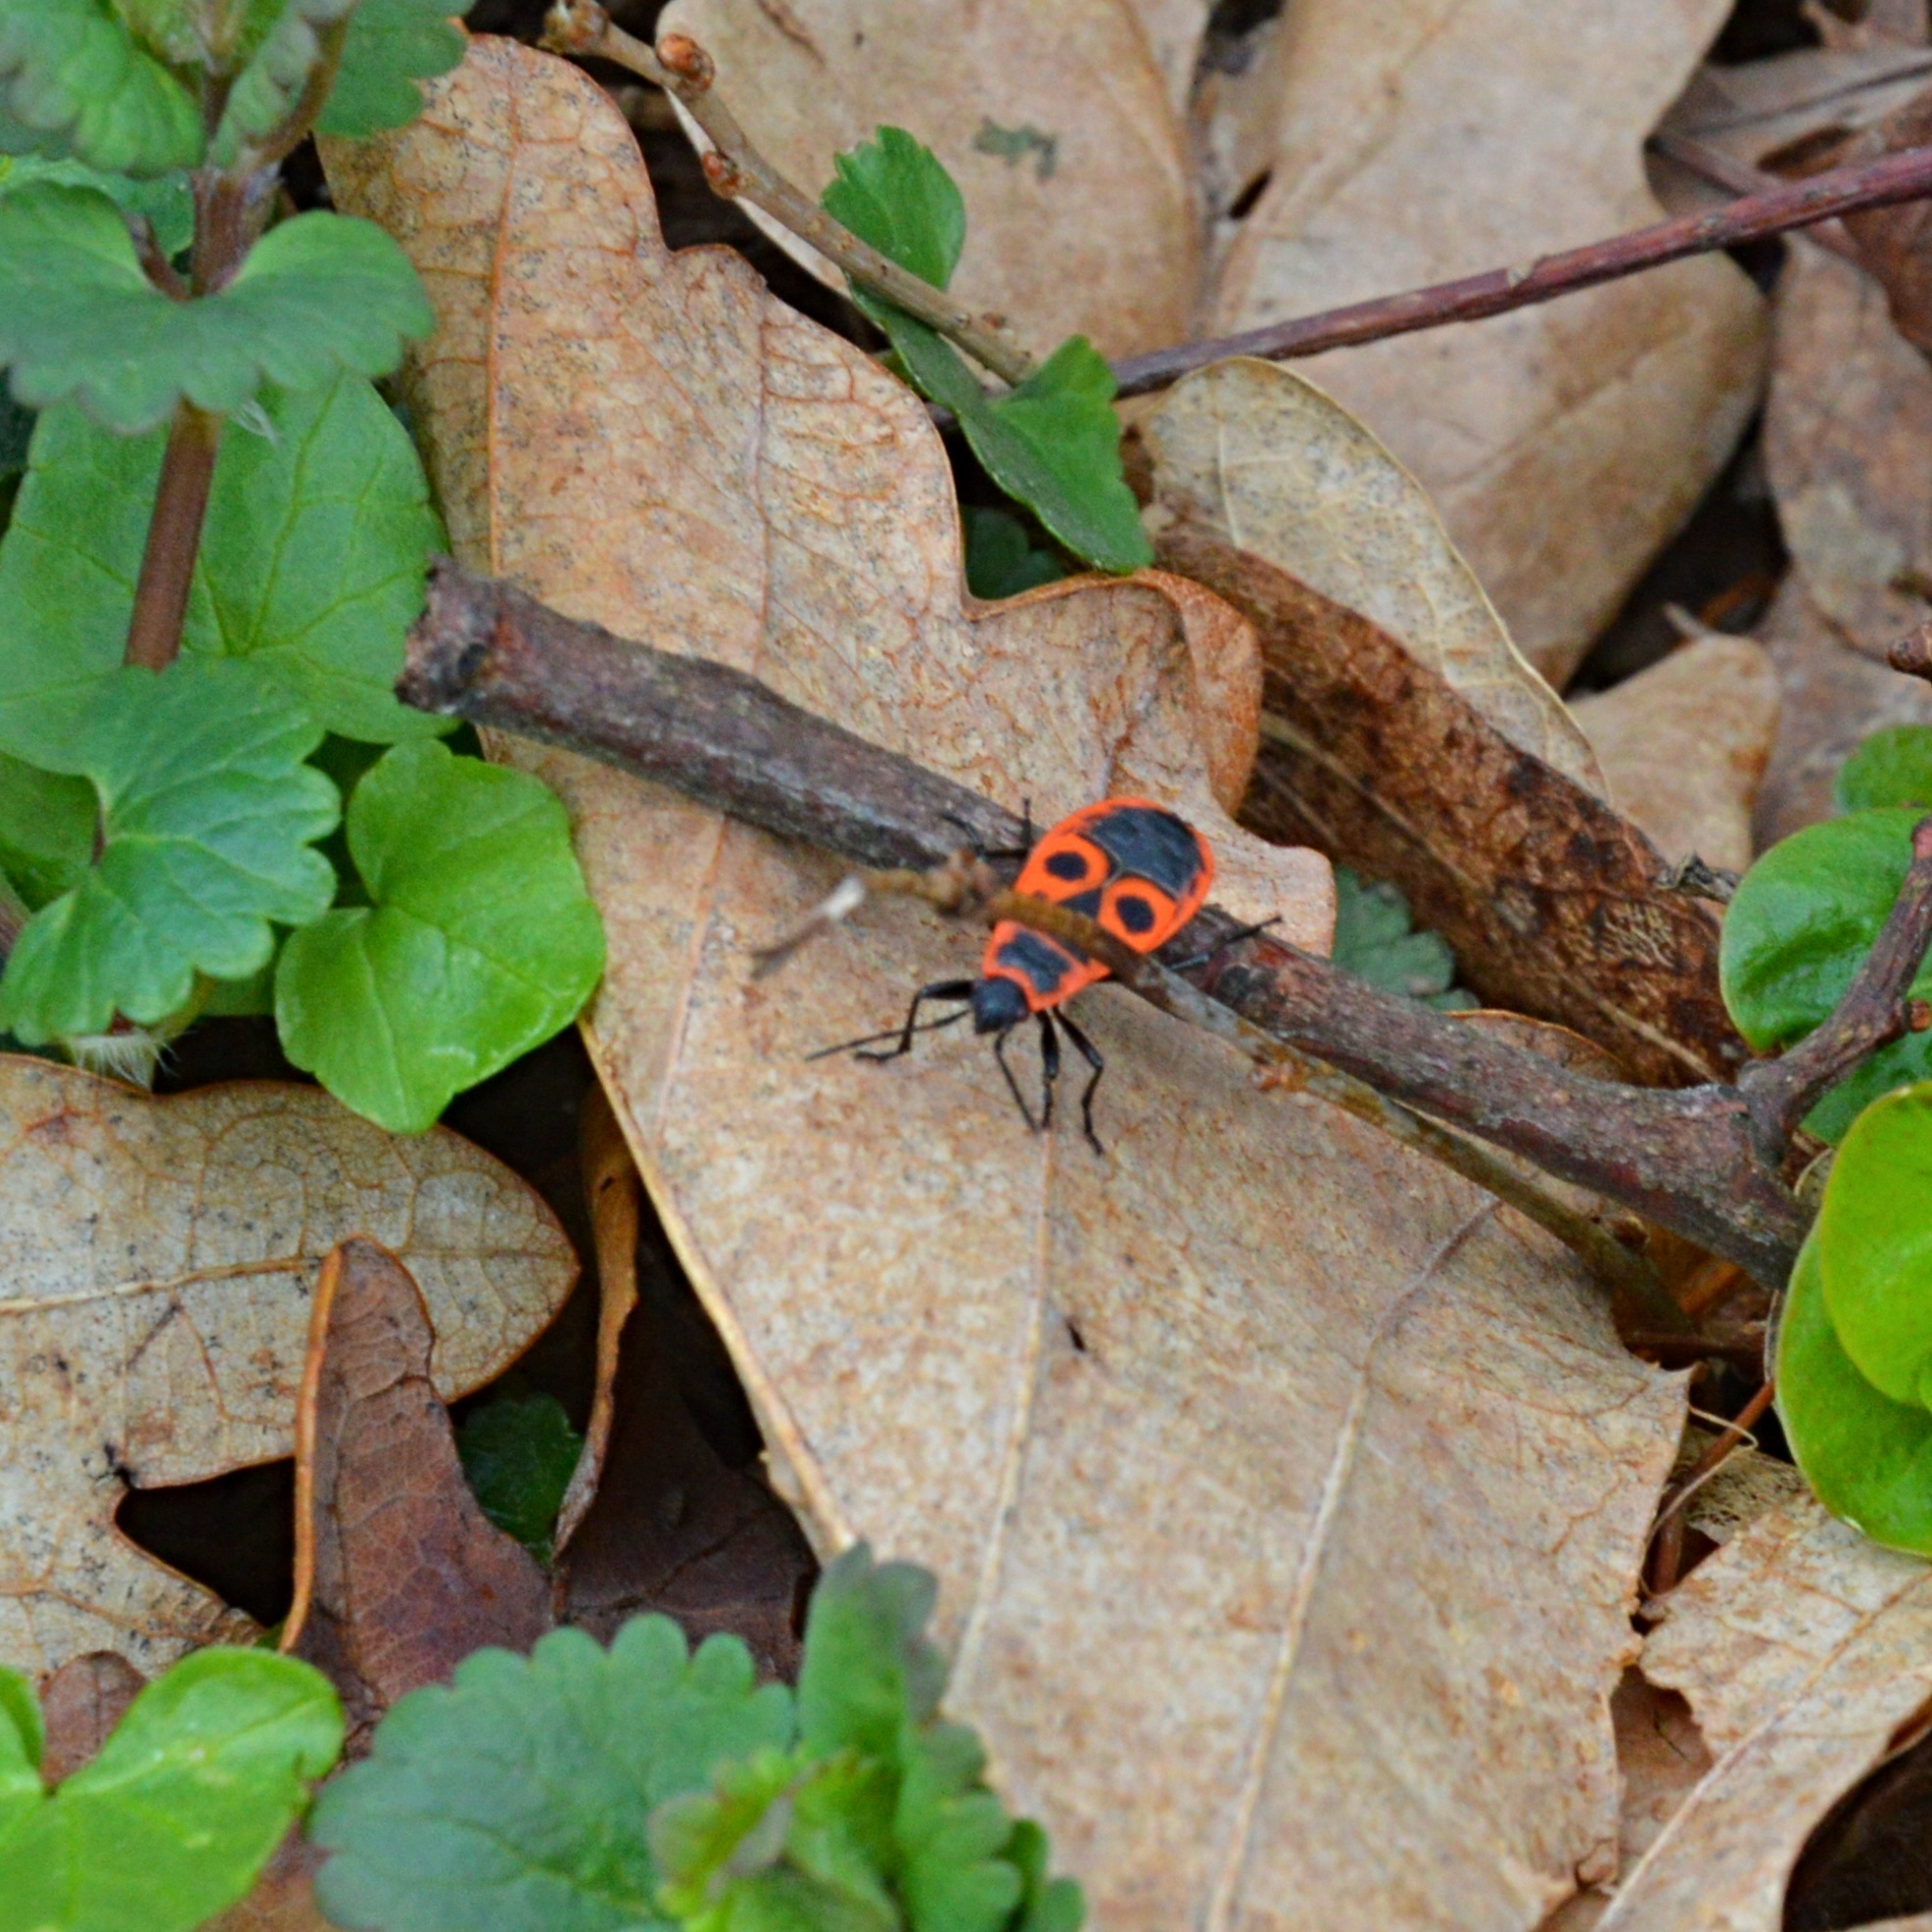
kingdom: Animalia
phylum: Arthropoda
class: Insecta
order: Hemiptera
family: Pyrrhocoridae
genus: Pyrrhocoris
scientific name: Pyrrhocoris apterus
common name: Firebug
